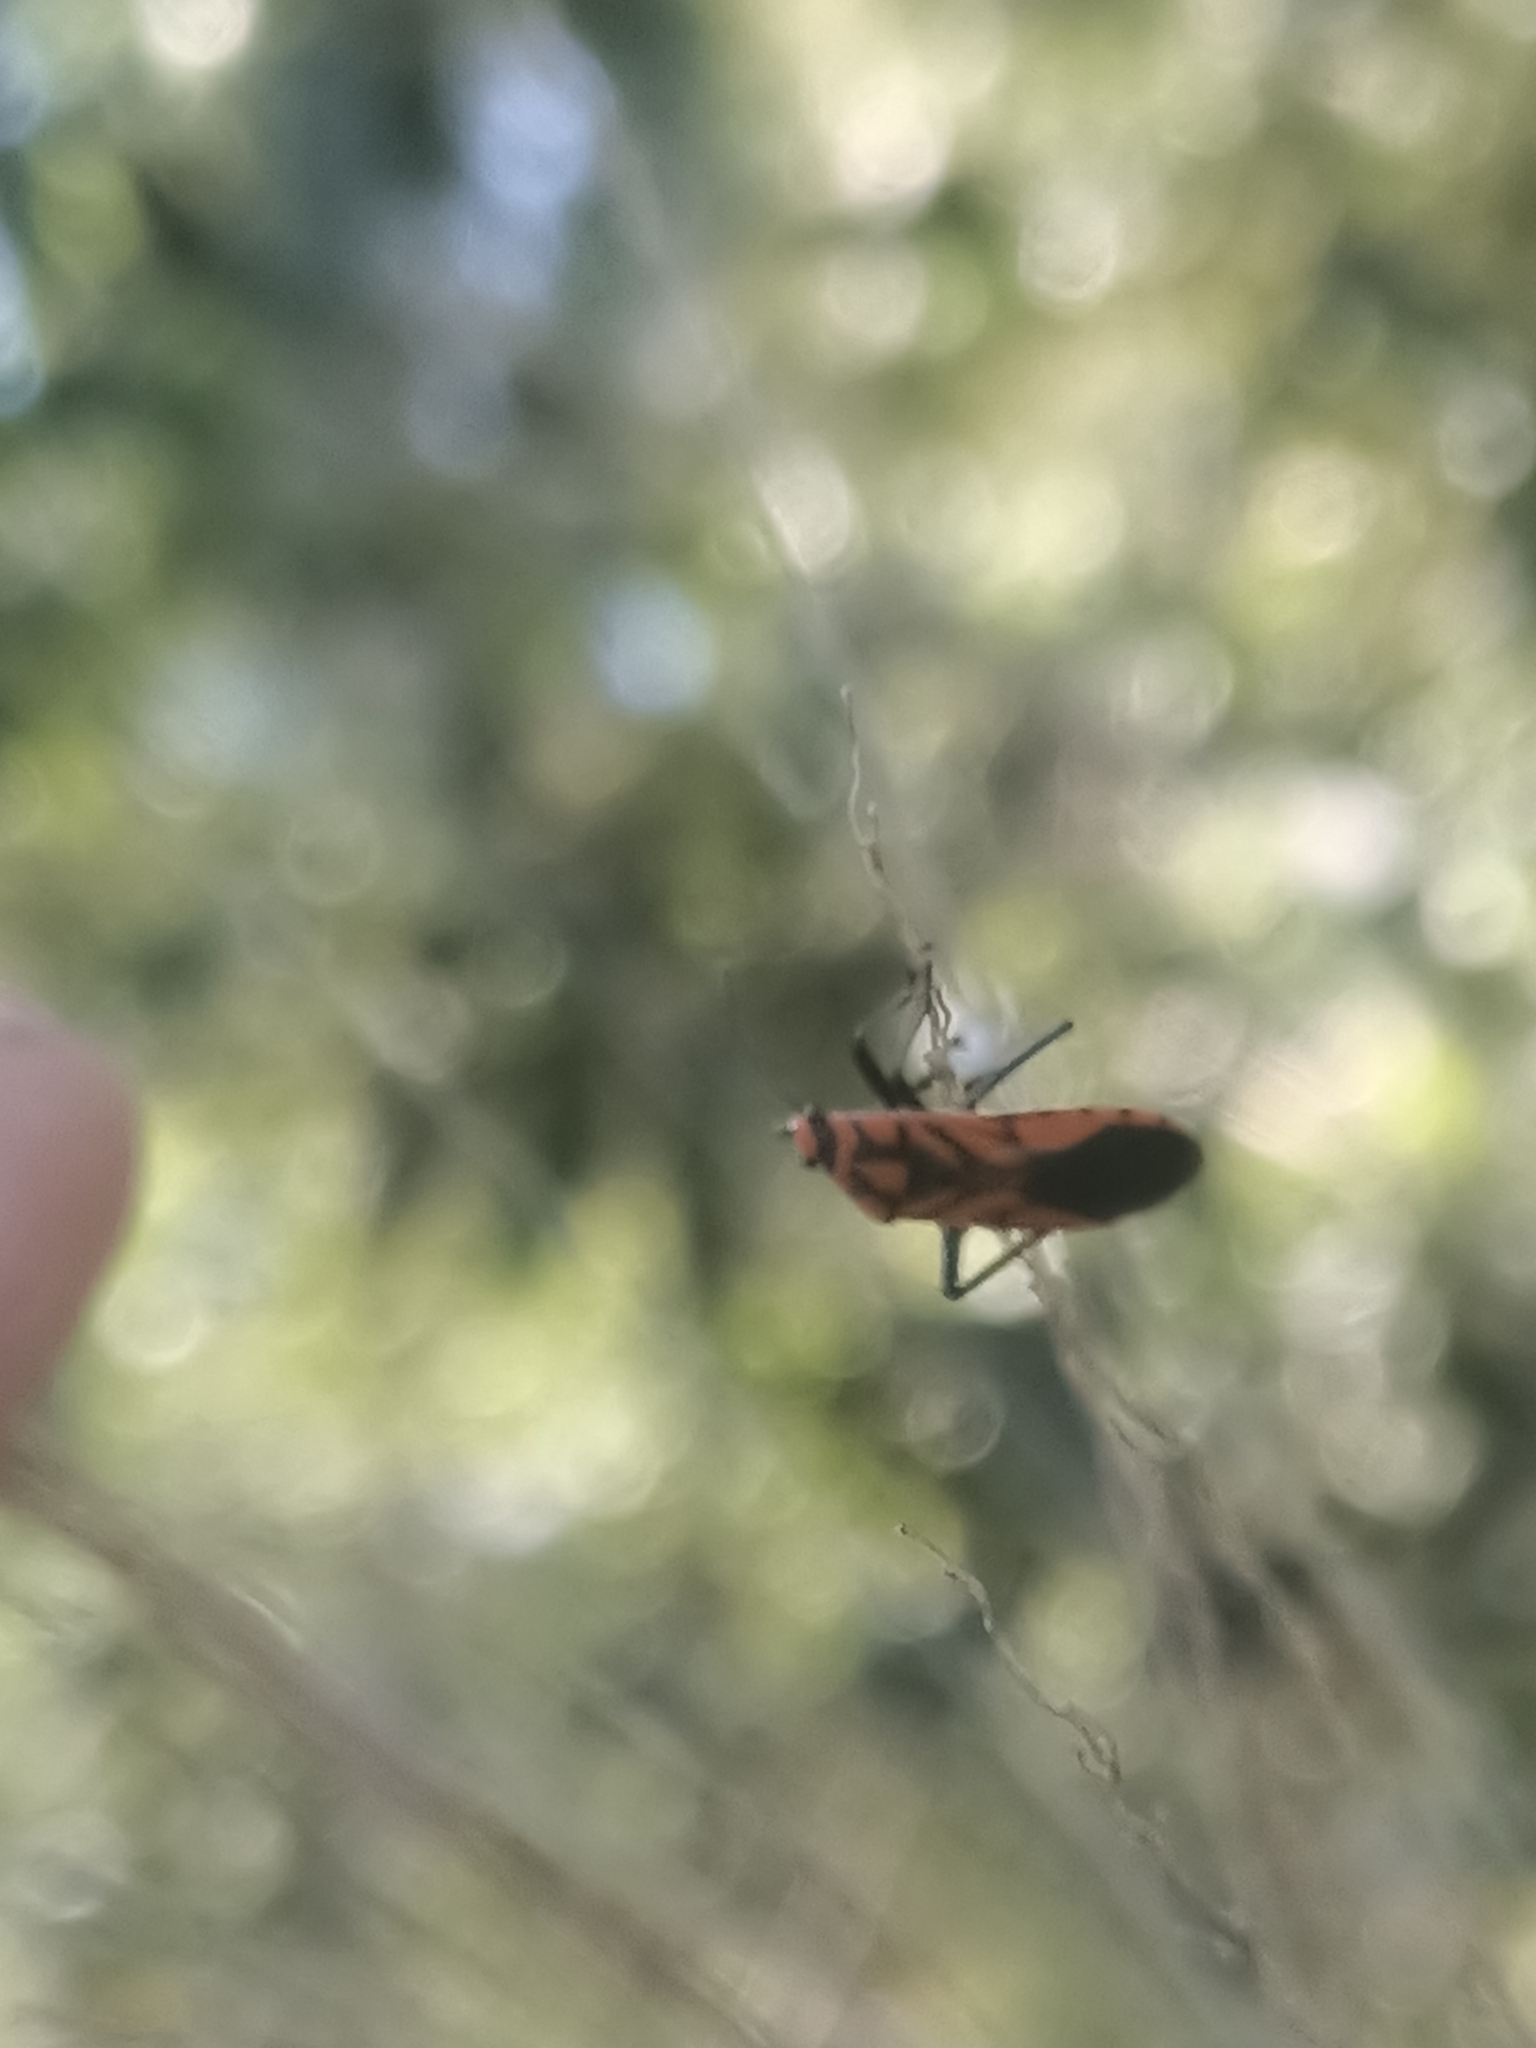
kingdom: Animalia
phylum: Arthropoda
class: Insecta
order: Hemiptera
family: Lygaeidae
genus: Spilostethus
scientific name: Spilostethus decoratus
